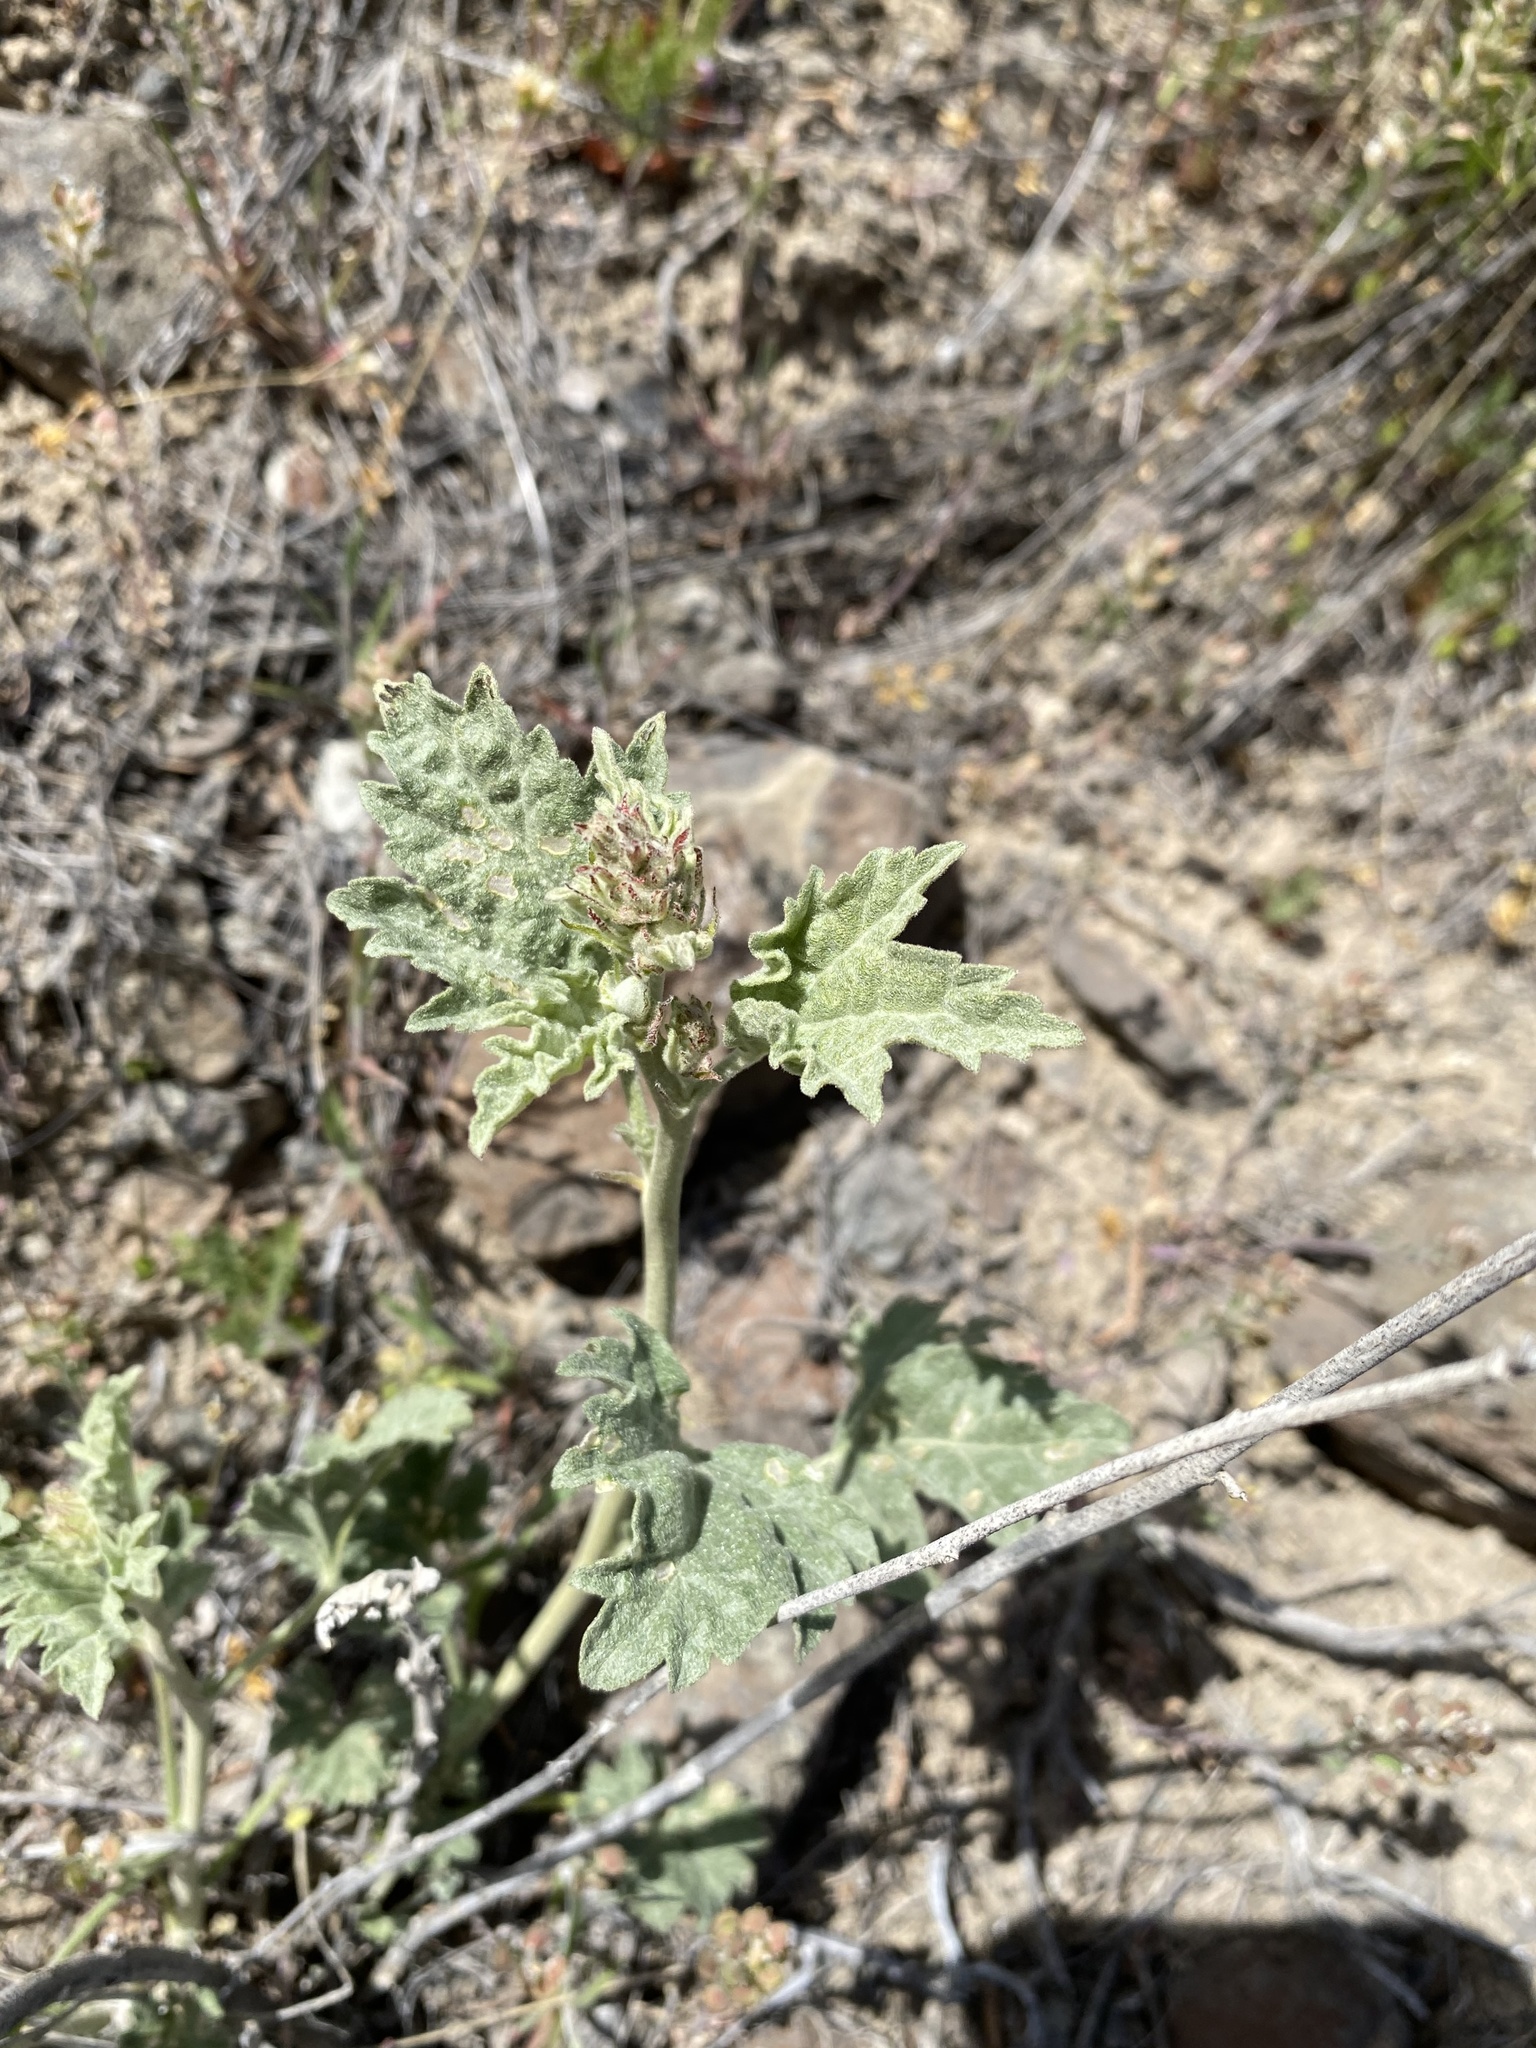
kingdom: Plantae
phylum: Tracheophyta
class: Magnoliopsida
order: Malvales
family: Malvaceae
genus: Sphaeralcea
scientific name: Sphaeralcea munroana
